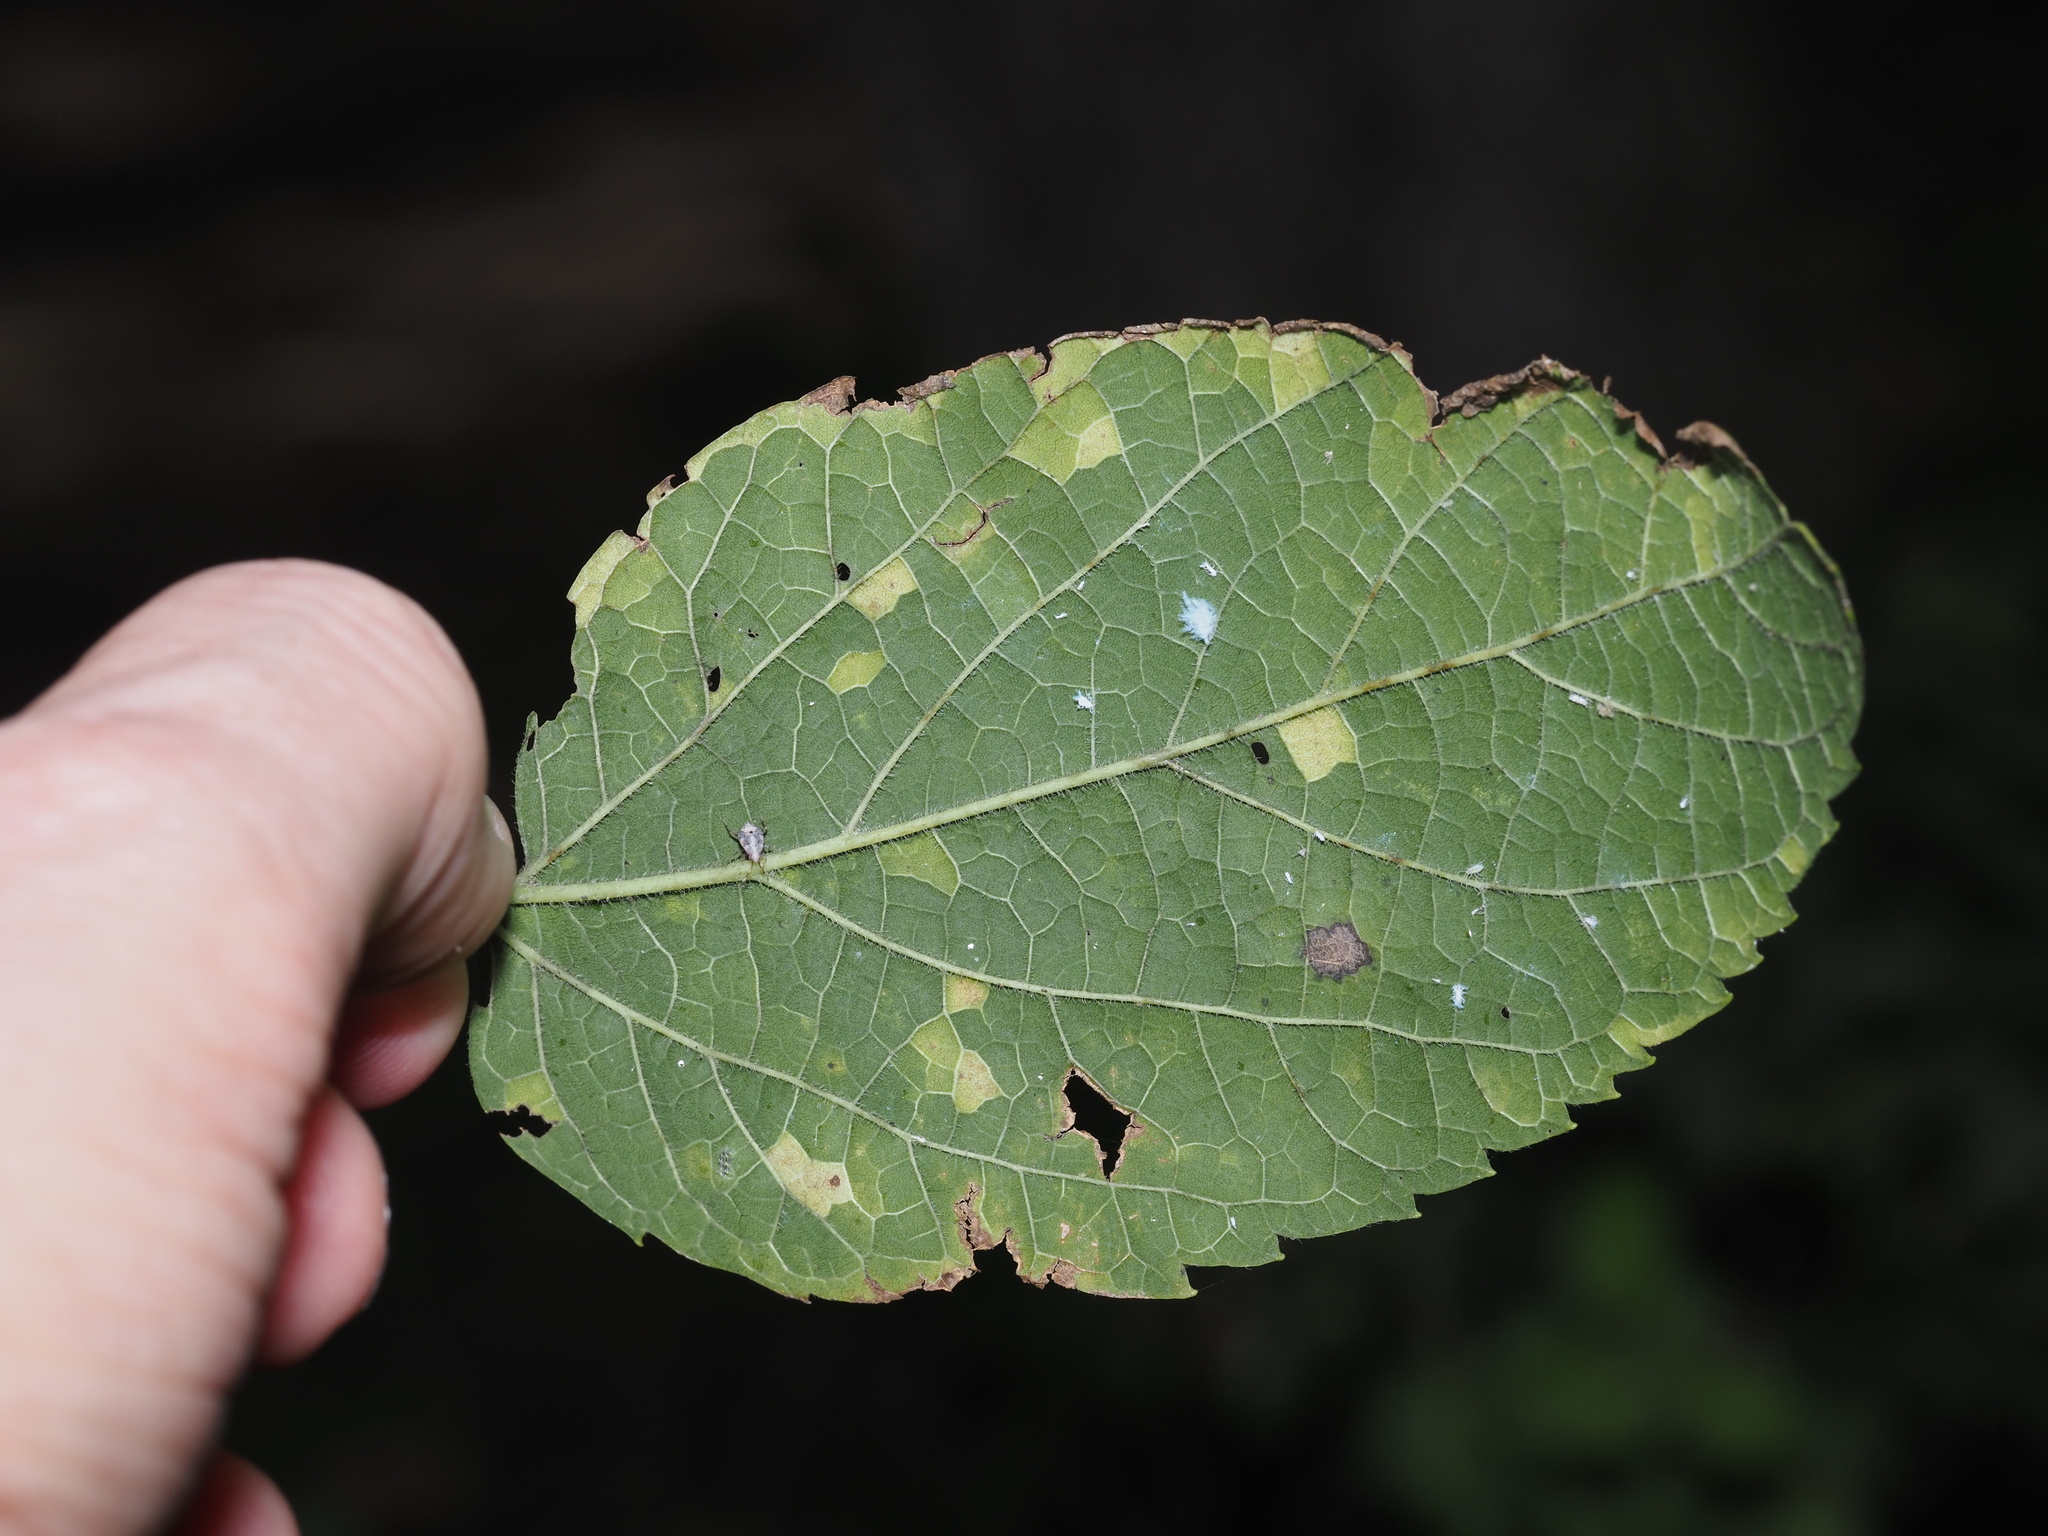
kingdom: Viruses
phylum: Kitrinoviricota
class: Alsuviricetes
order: Martellivirales
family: Closteroviridae
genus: Ampelovirus
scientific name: Ampelovirus
